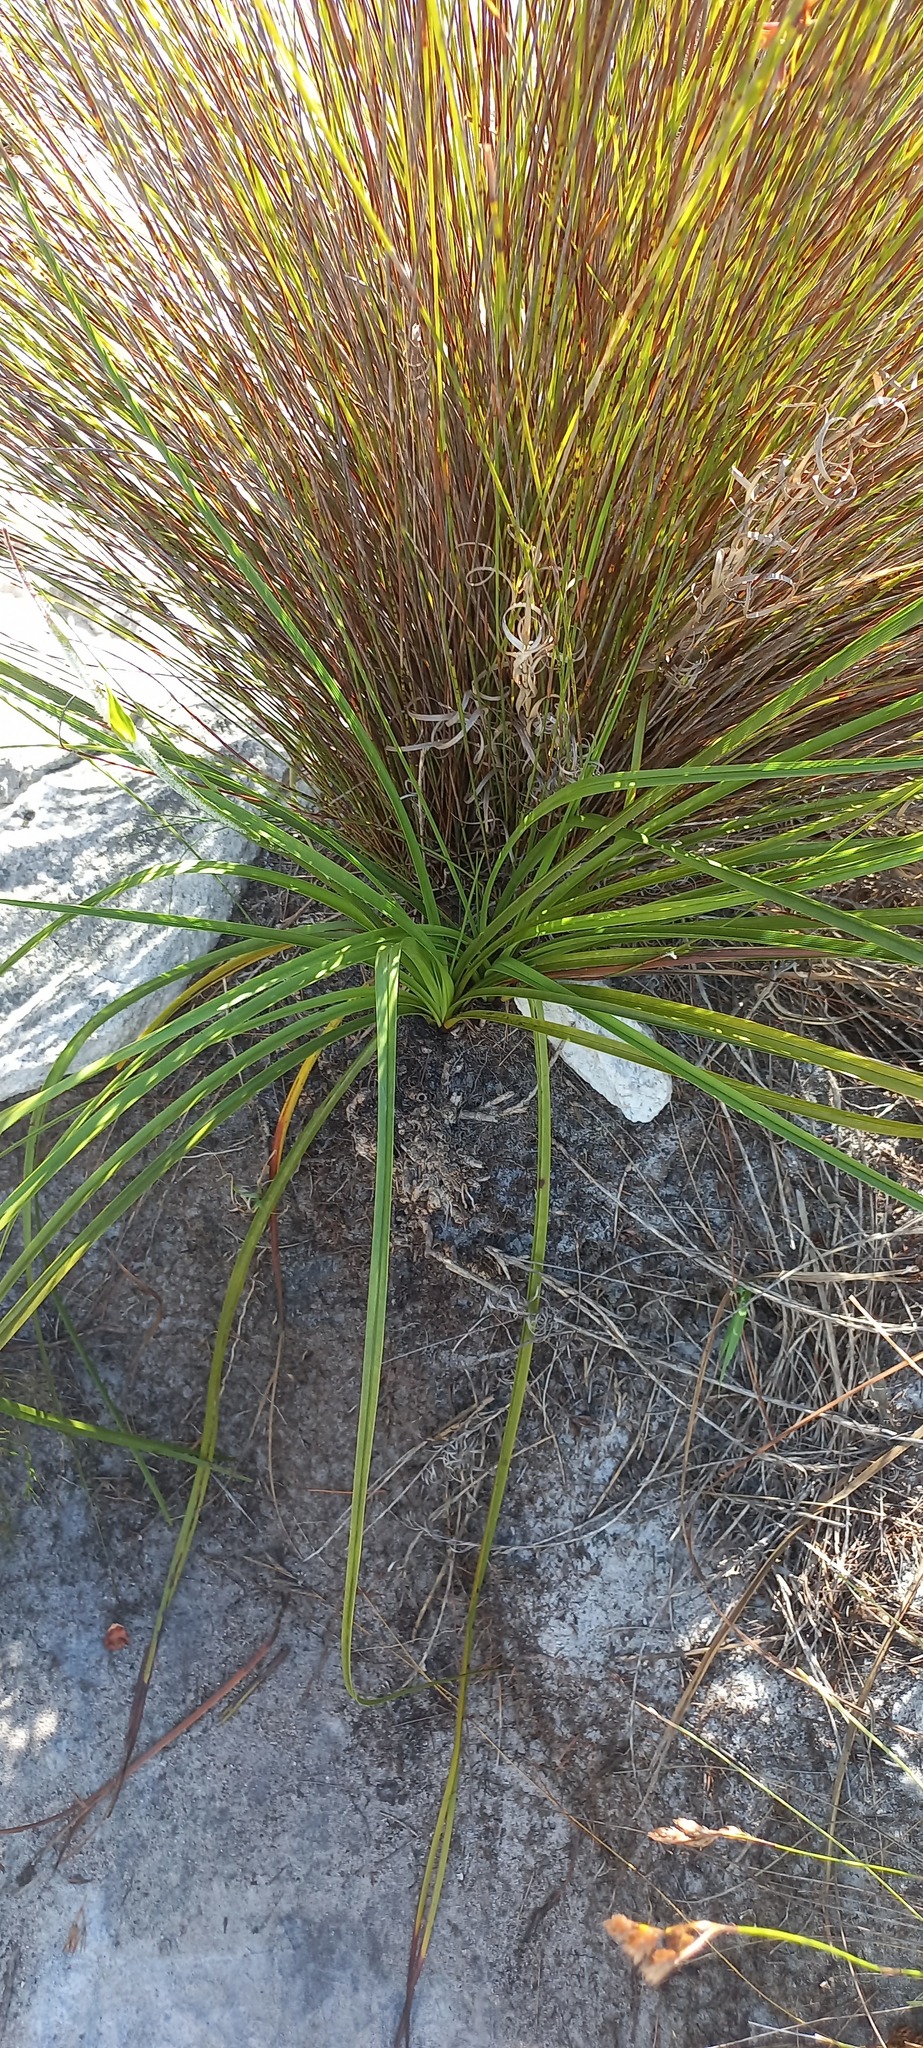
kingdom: Plantae
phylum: Tracheophyta
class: Liliopsida
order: Poales
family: Cyperaceae
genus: Tetraria
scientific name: Tetraria eximia
